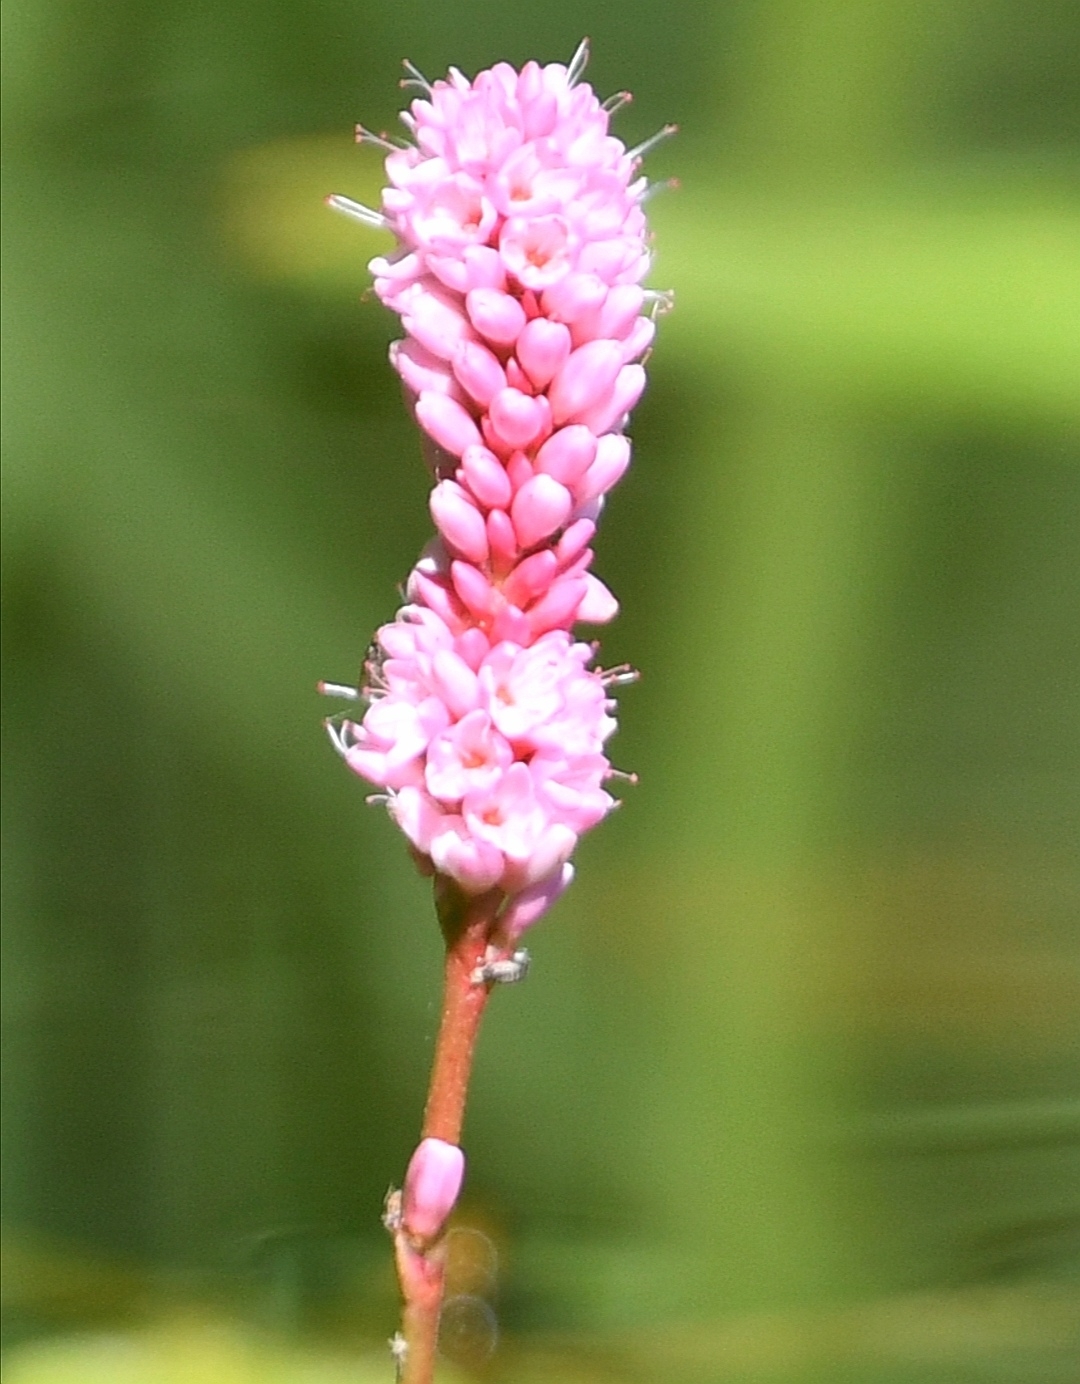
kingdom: Plantae
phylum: Tracheophyta
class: Magnoliopsida
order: Caryophyllales
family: Polygonaceae
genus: Persicaria
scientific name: Persicaria amphibia
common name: Amphibious bistort
